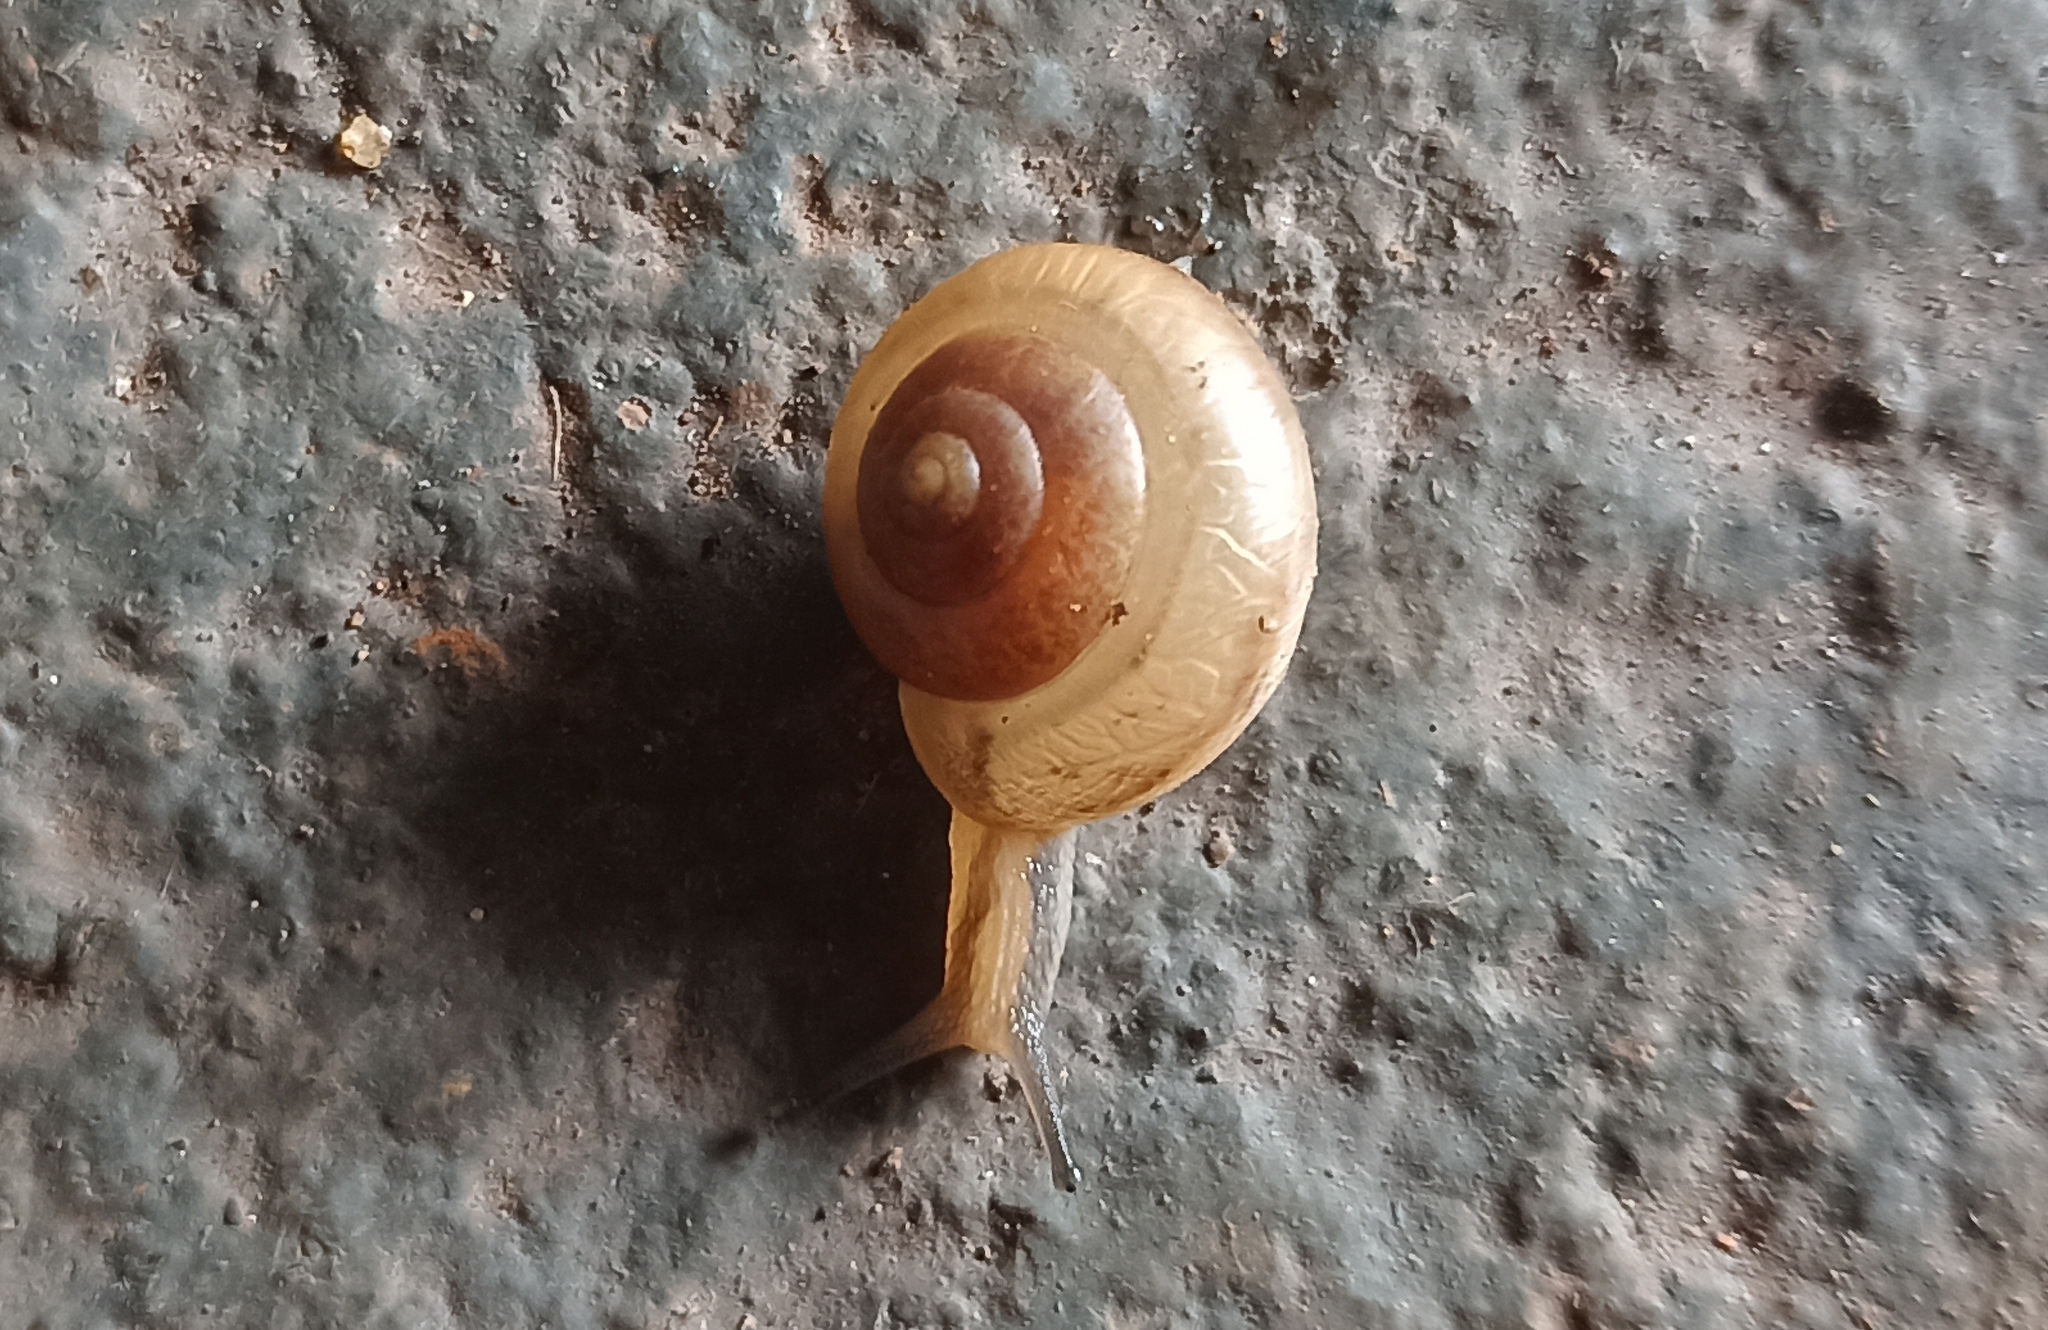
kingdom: Animalia
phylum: Mollusca
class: Gastropoda
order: Stylommatophora
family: Camaenidae
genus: Bradybaena
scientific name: Bradybaena similaris
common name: Asian trampsnail
